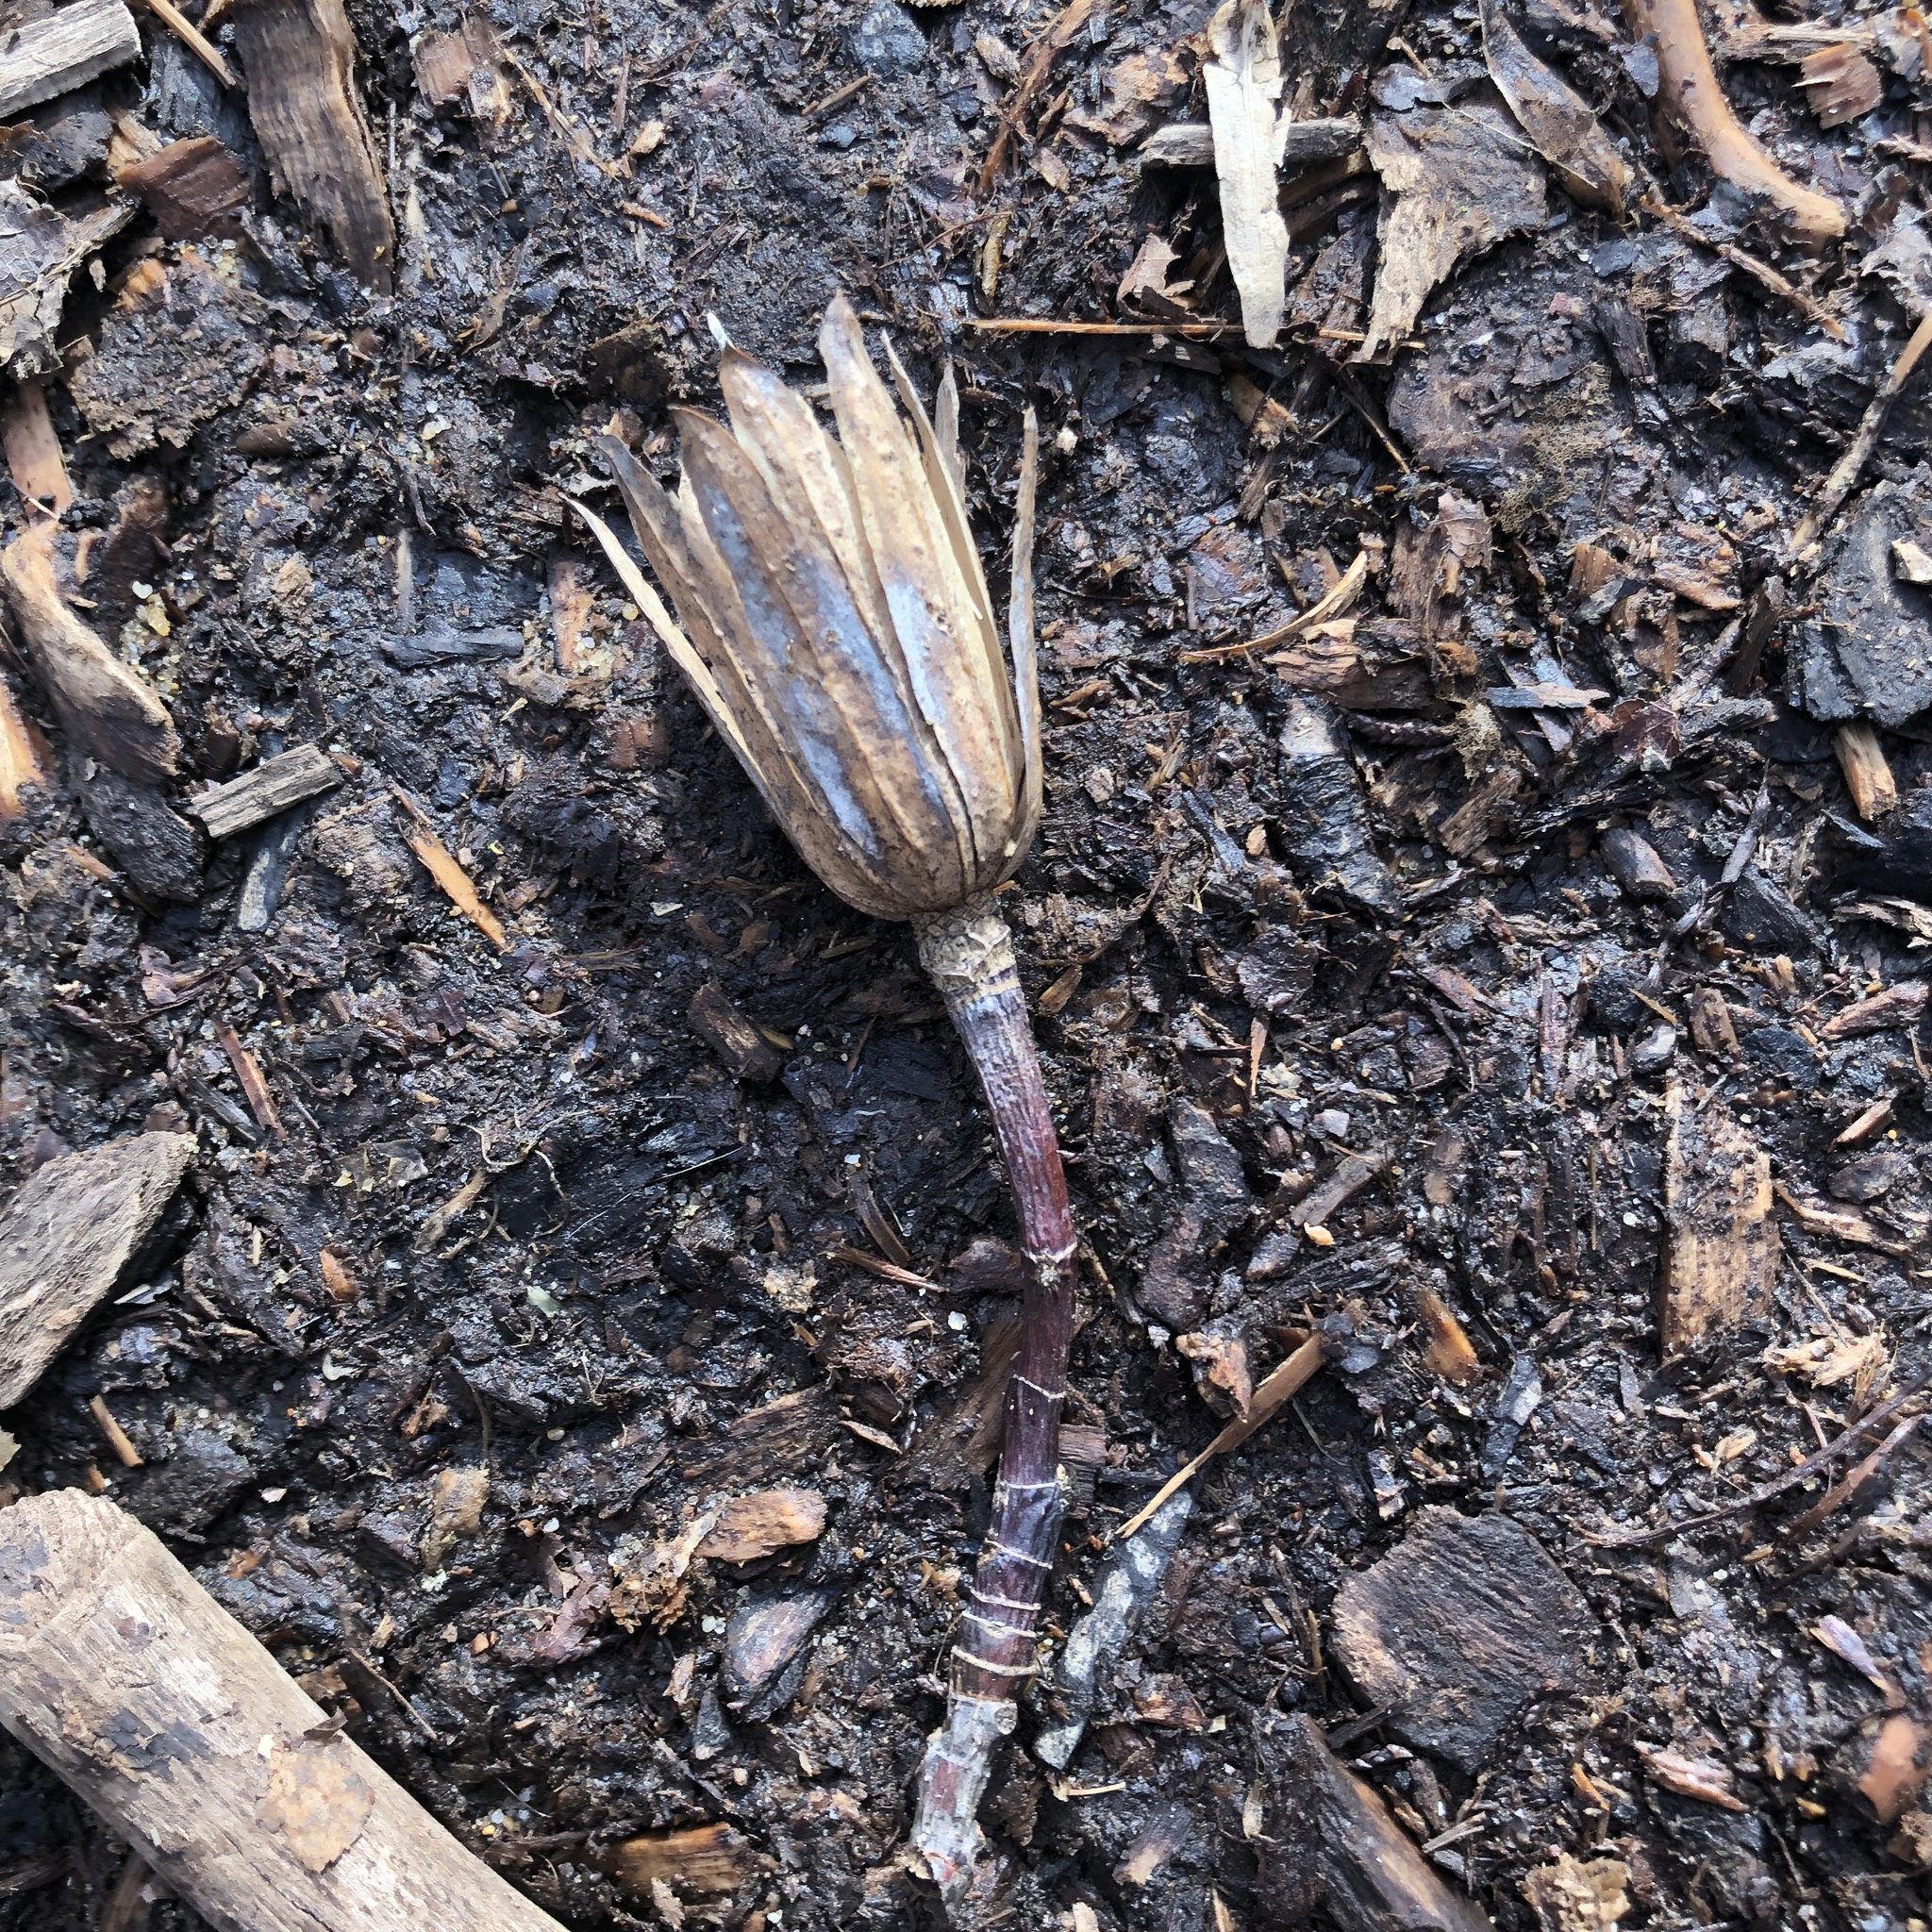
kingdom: Plantae
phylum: Tracheophyta
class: Magnoliopsida
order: Magnoliales
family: Magnoliaceae
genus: Liriodendron
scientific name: Liriodendron tulipifera
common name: Tulip tree
